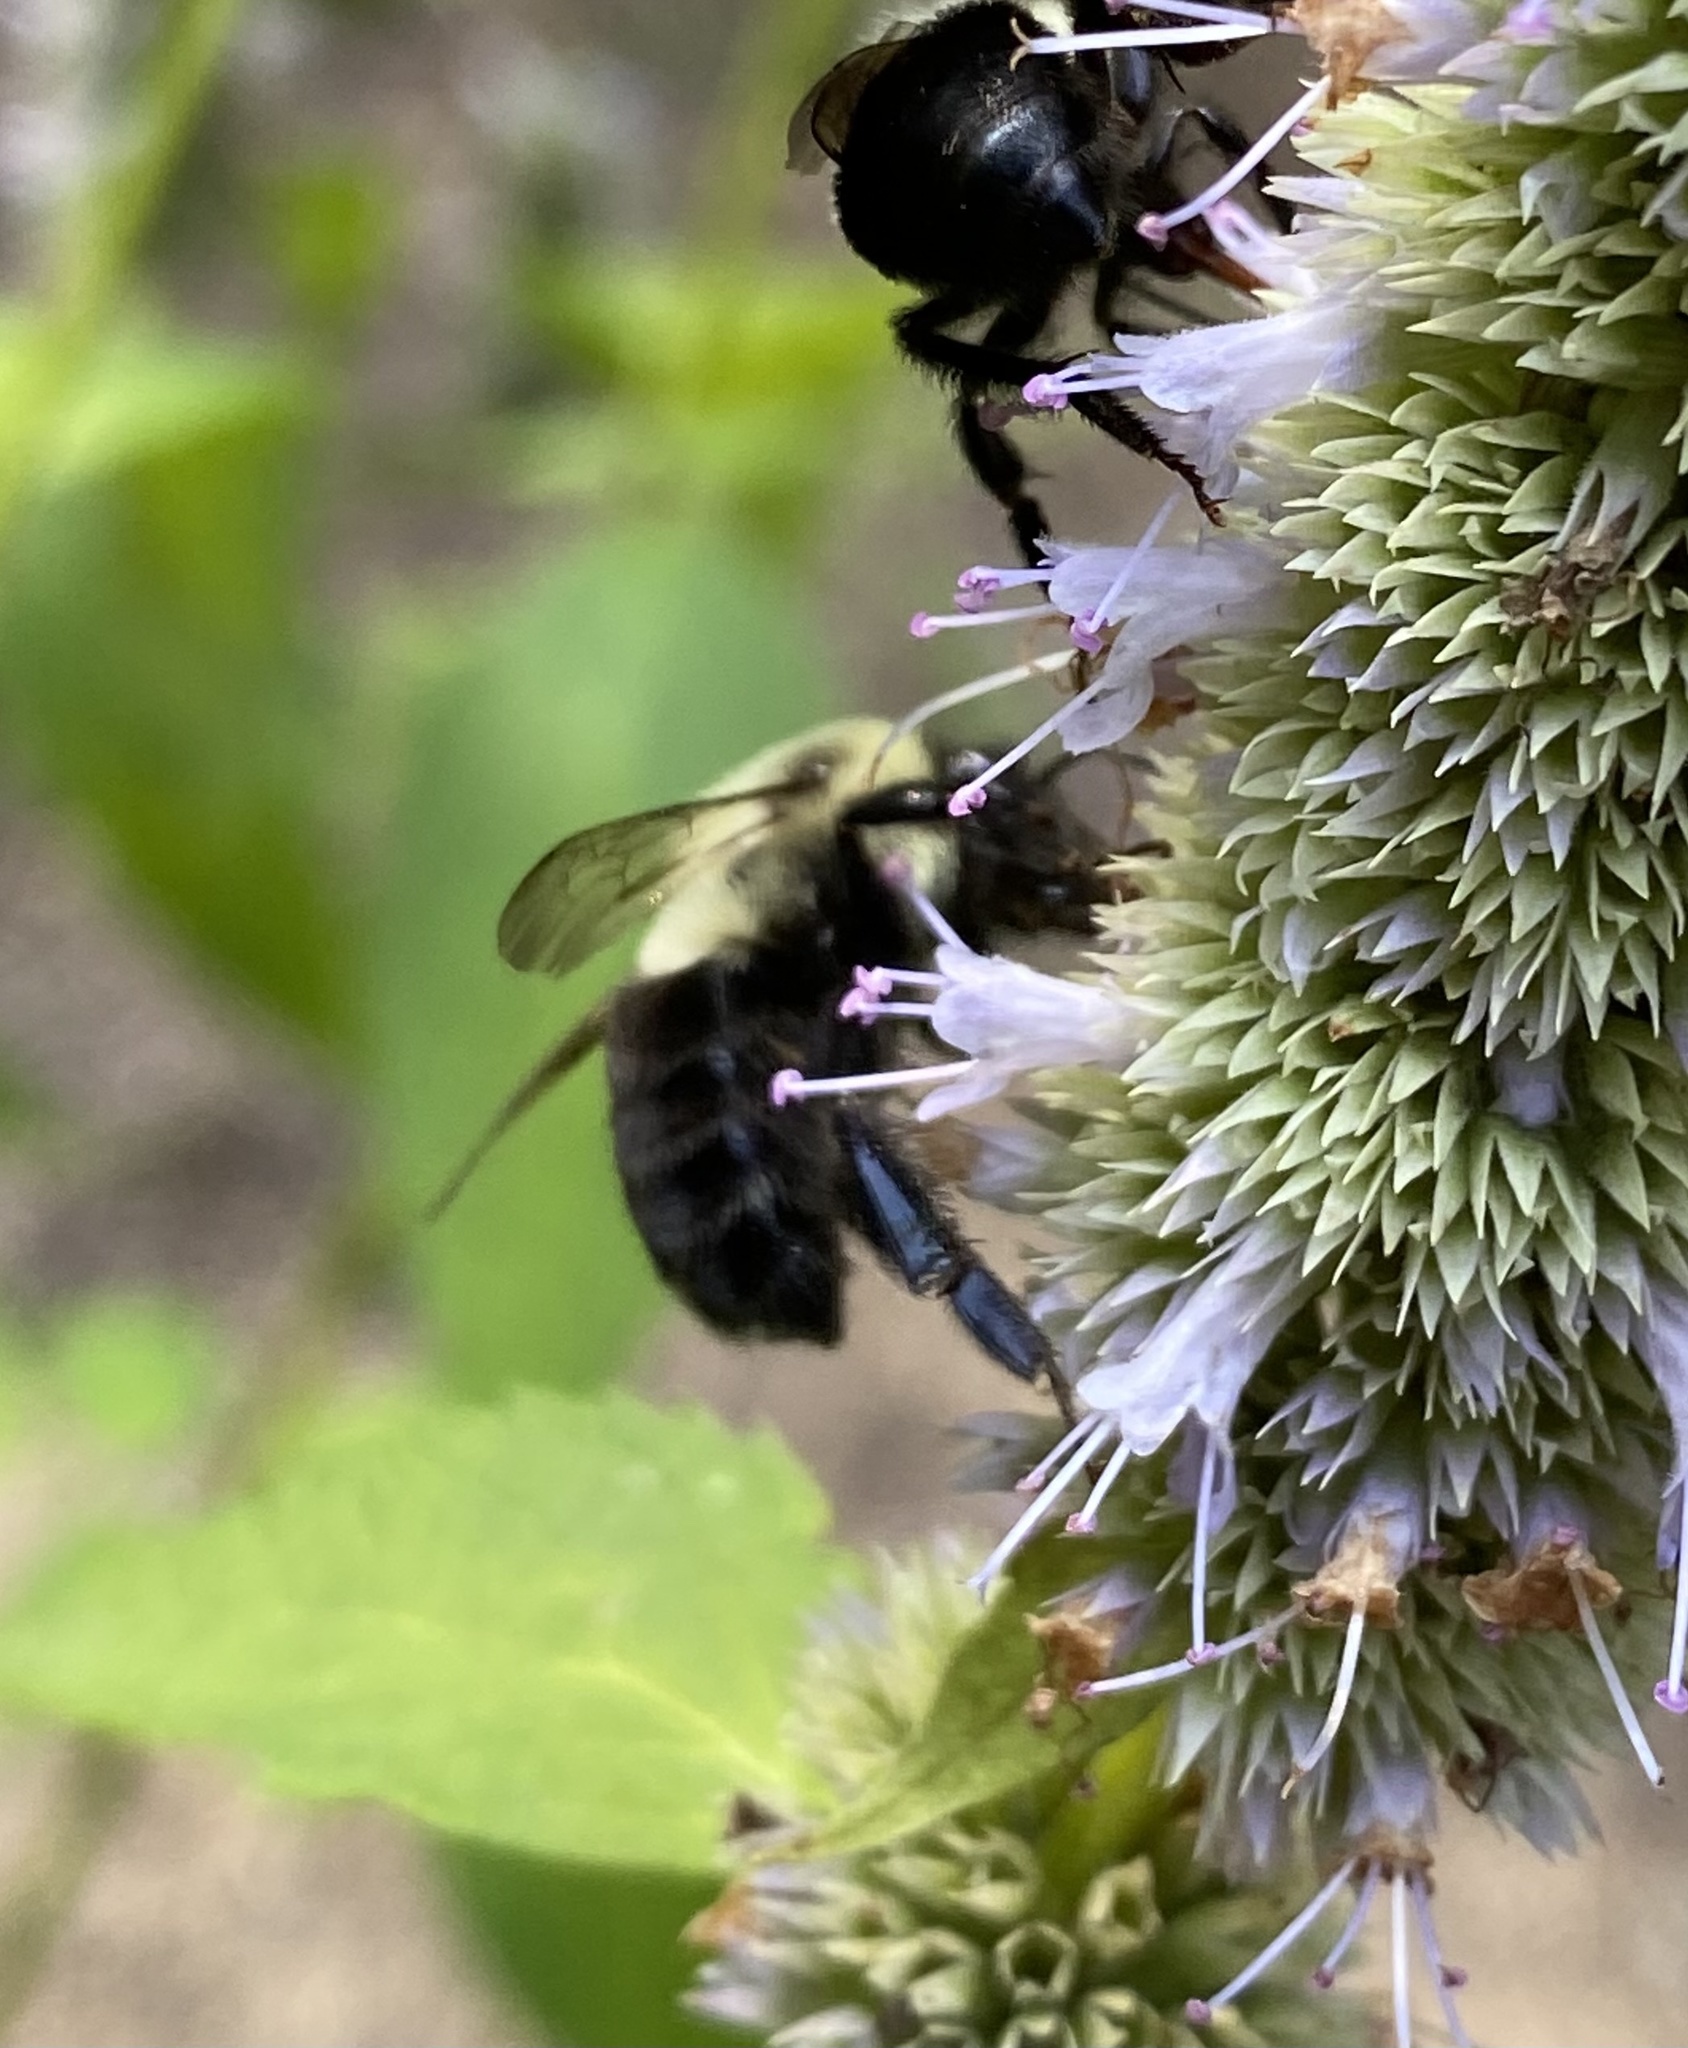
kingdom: Animalia
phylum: Arthropoda
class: Insecta
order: Hymenoptera
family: Apidae
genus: Bombus
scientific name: Bombus impatiens
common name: Common eastern bumble bee
